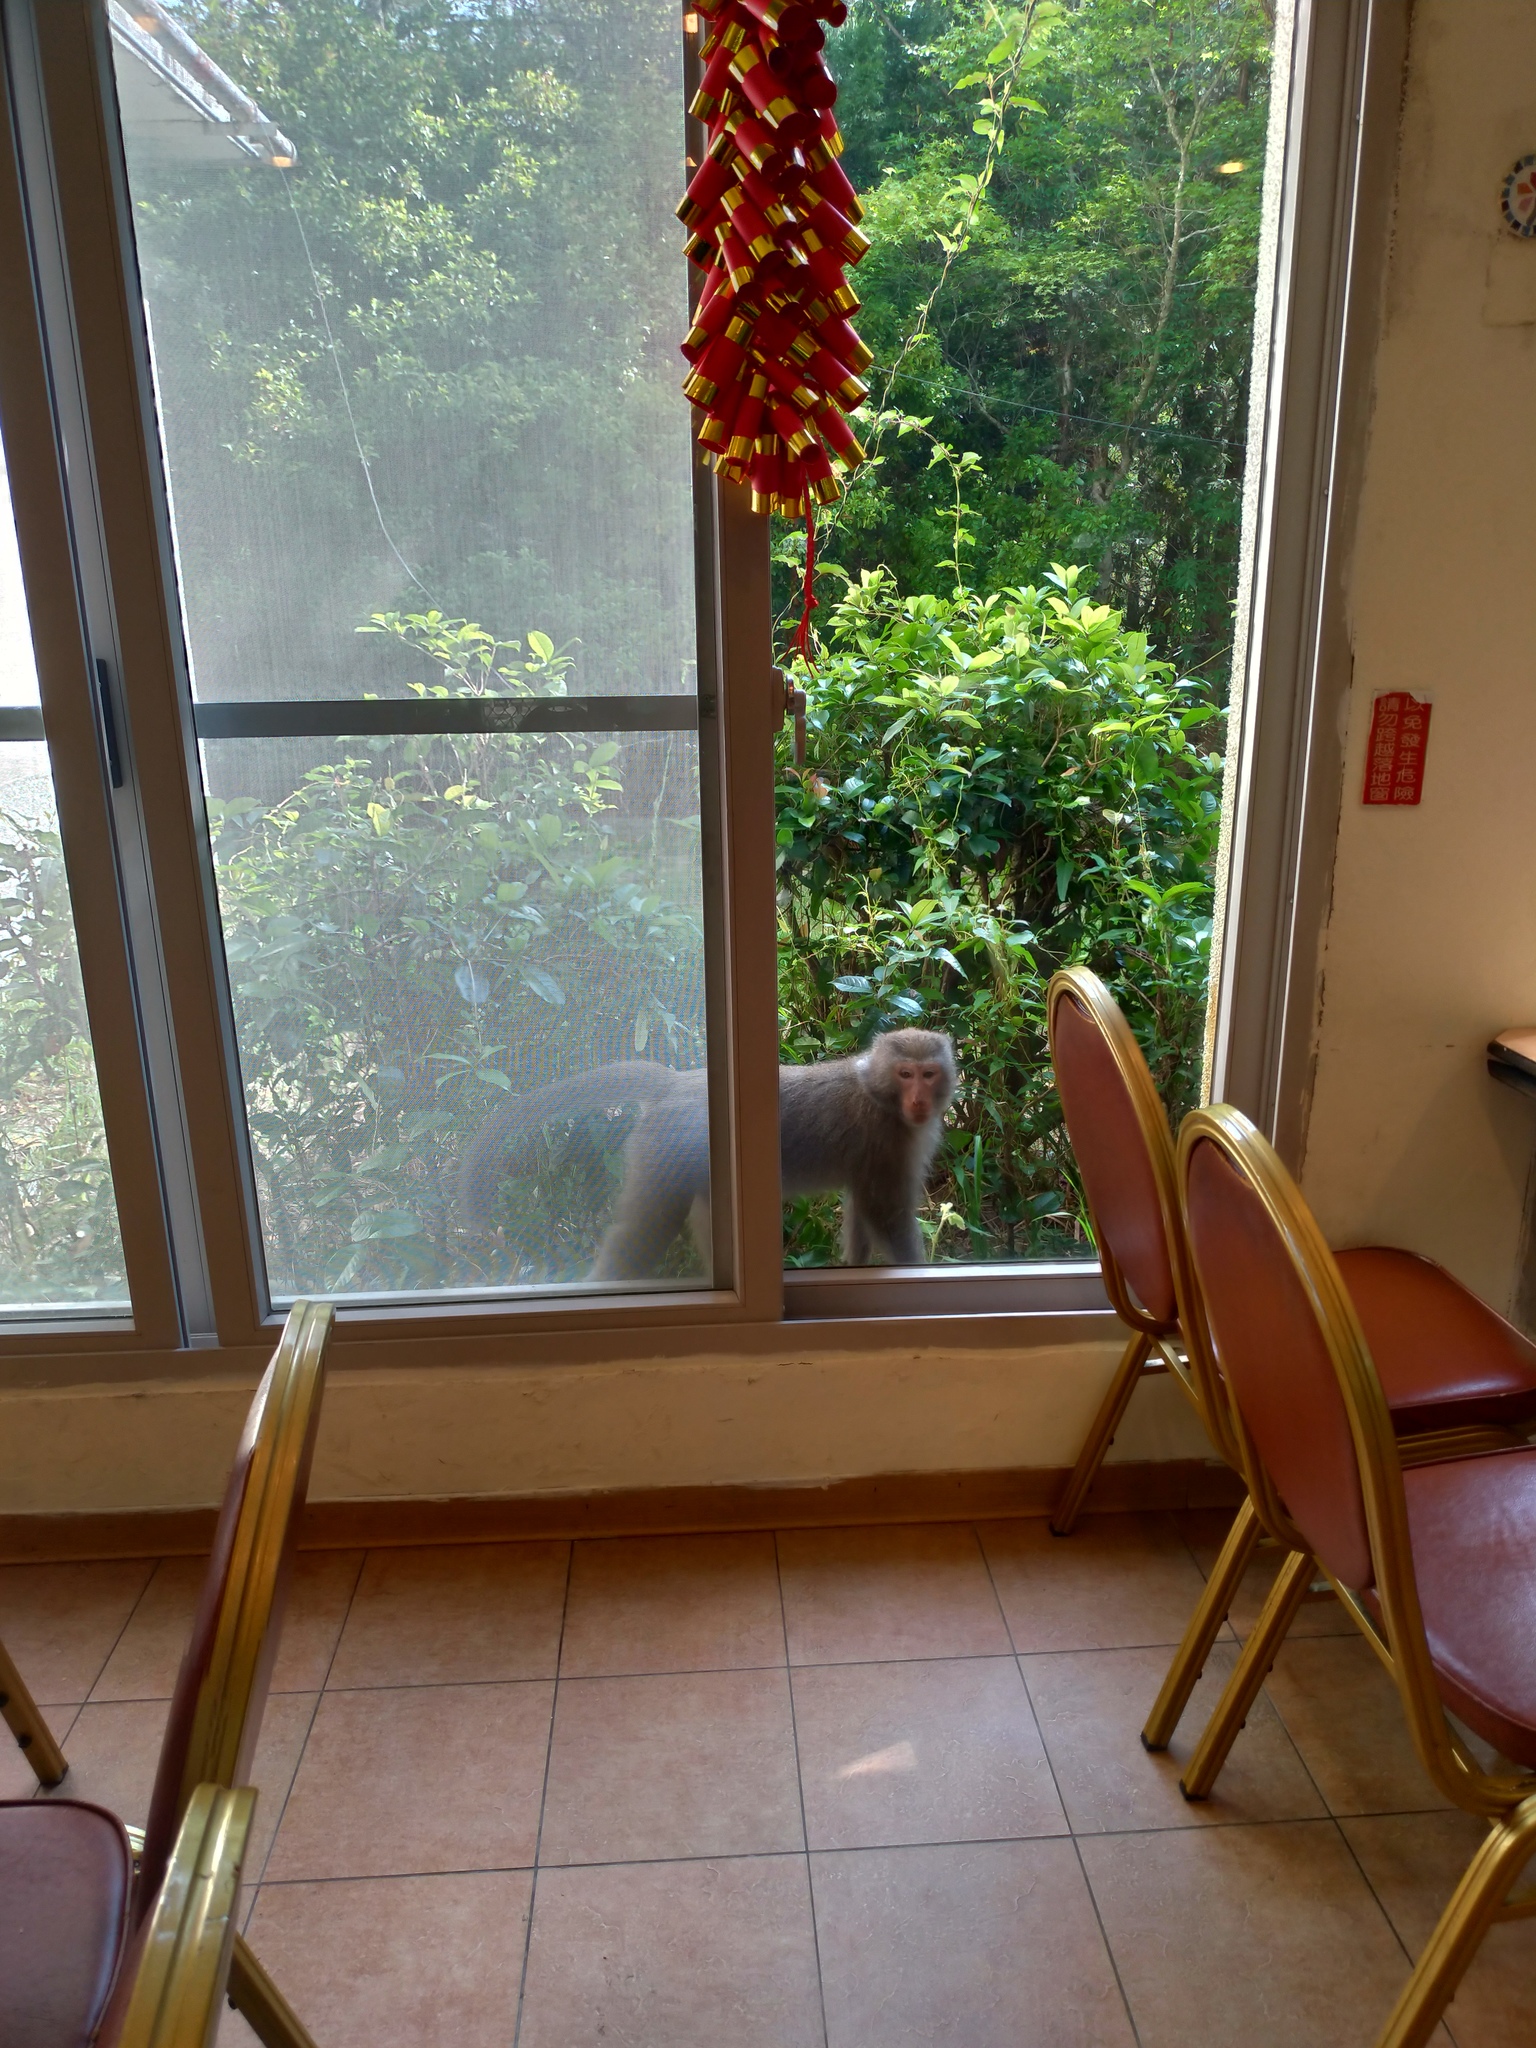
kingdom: Animalia
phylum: Chordata
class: Mammalia
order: Primates
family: Cercopithecidae
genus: Macaca
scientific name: Macaca cyclopis
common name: Formosan rock macaque
